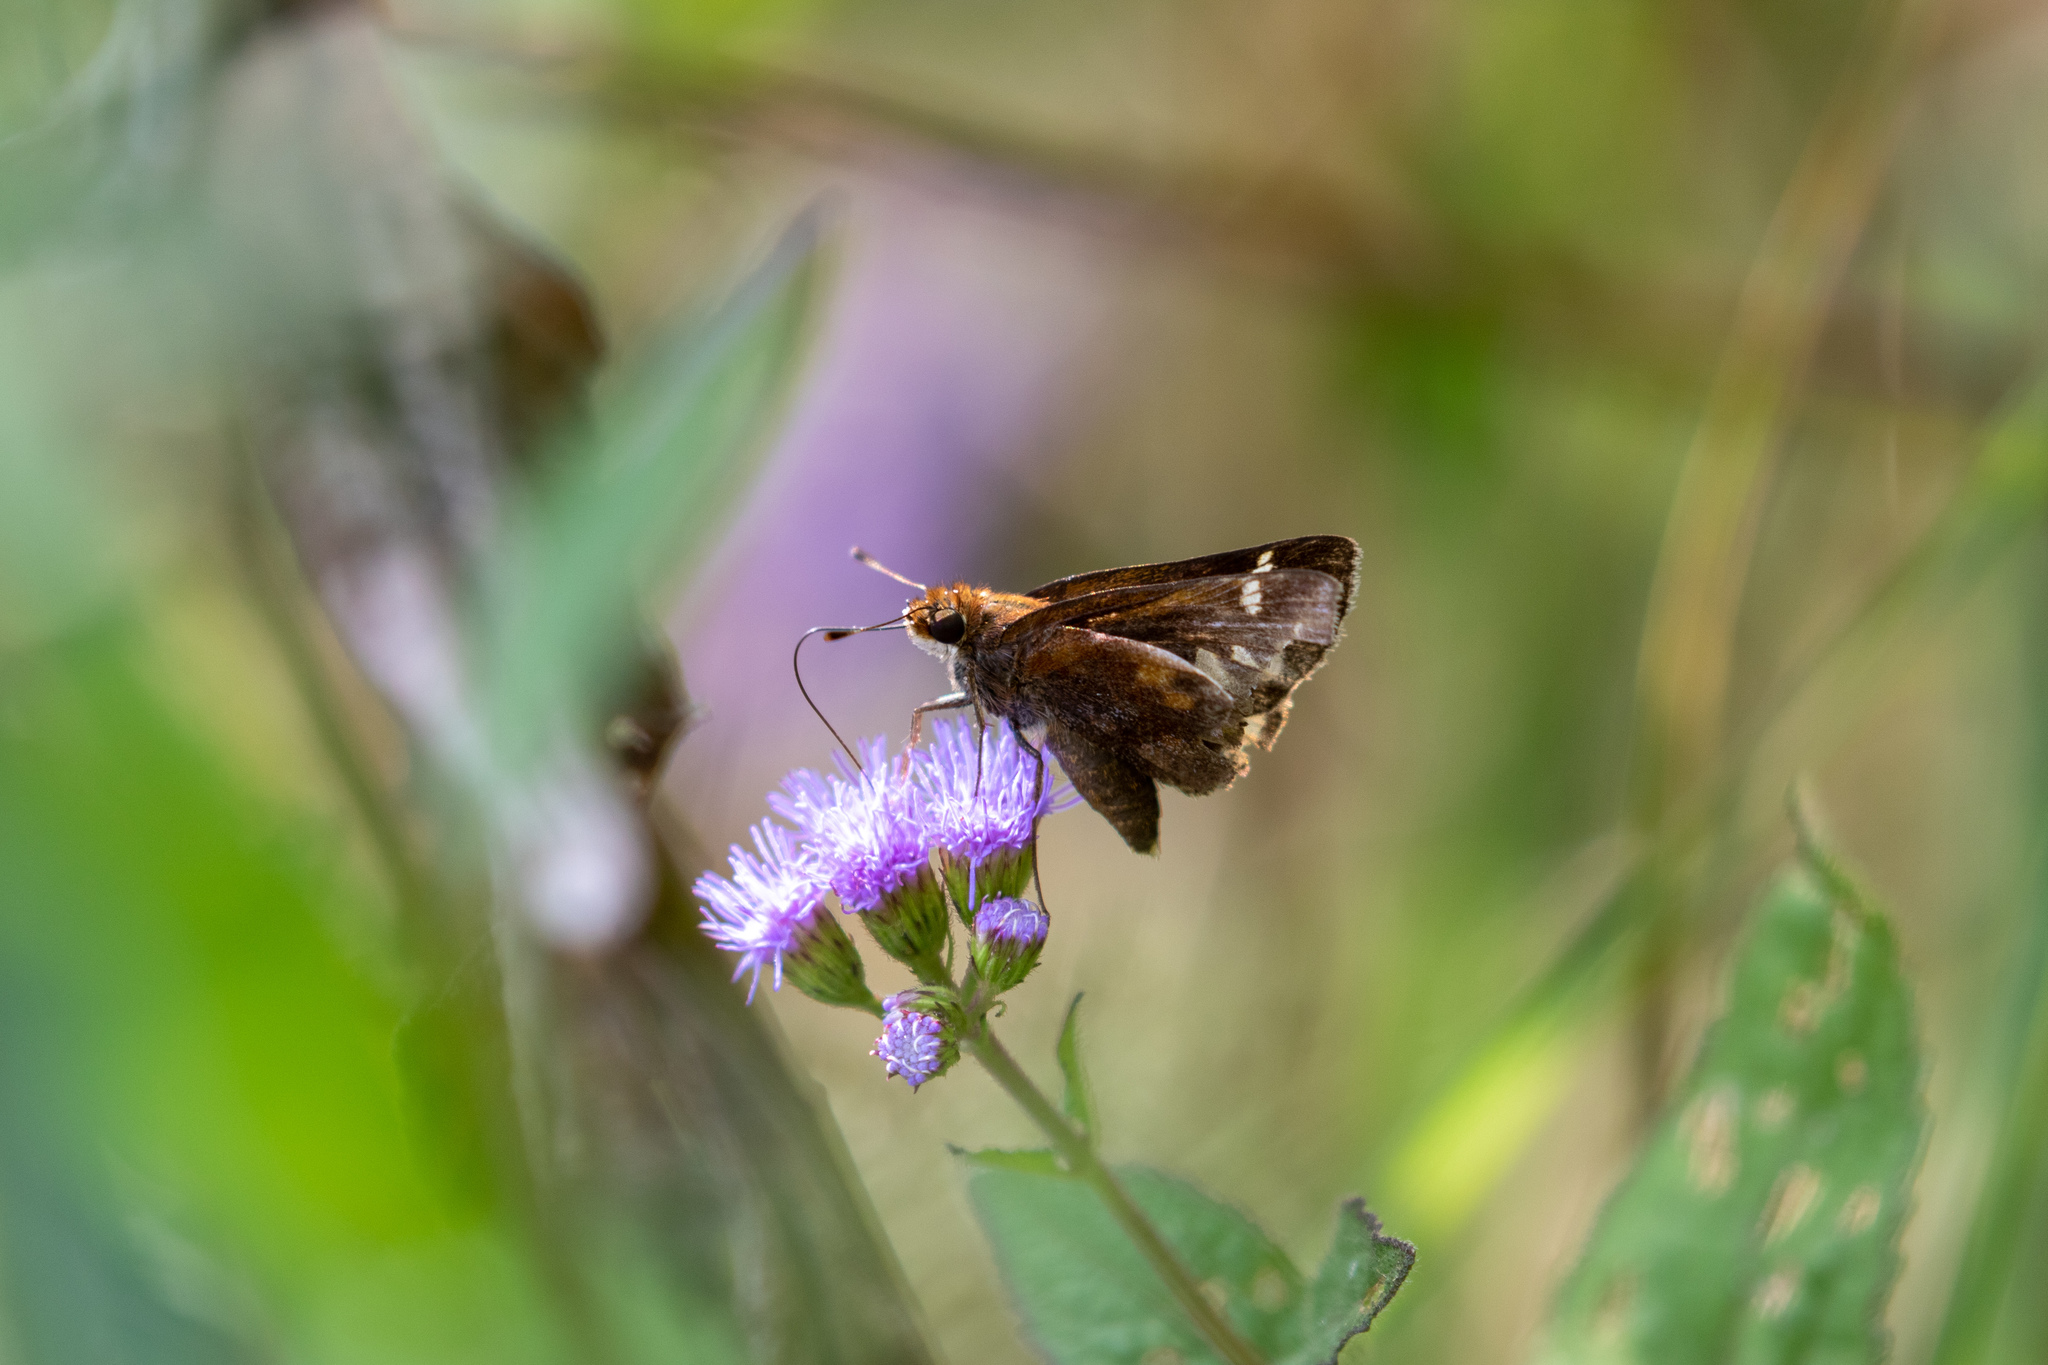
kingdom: Animalia
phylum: Arthropoda
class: Insecta
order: Lepidoptera
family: Hesperiidae
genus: Lon
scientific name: Lon zabulon
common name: Zabulon skipper
